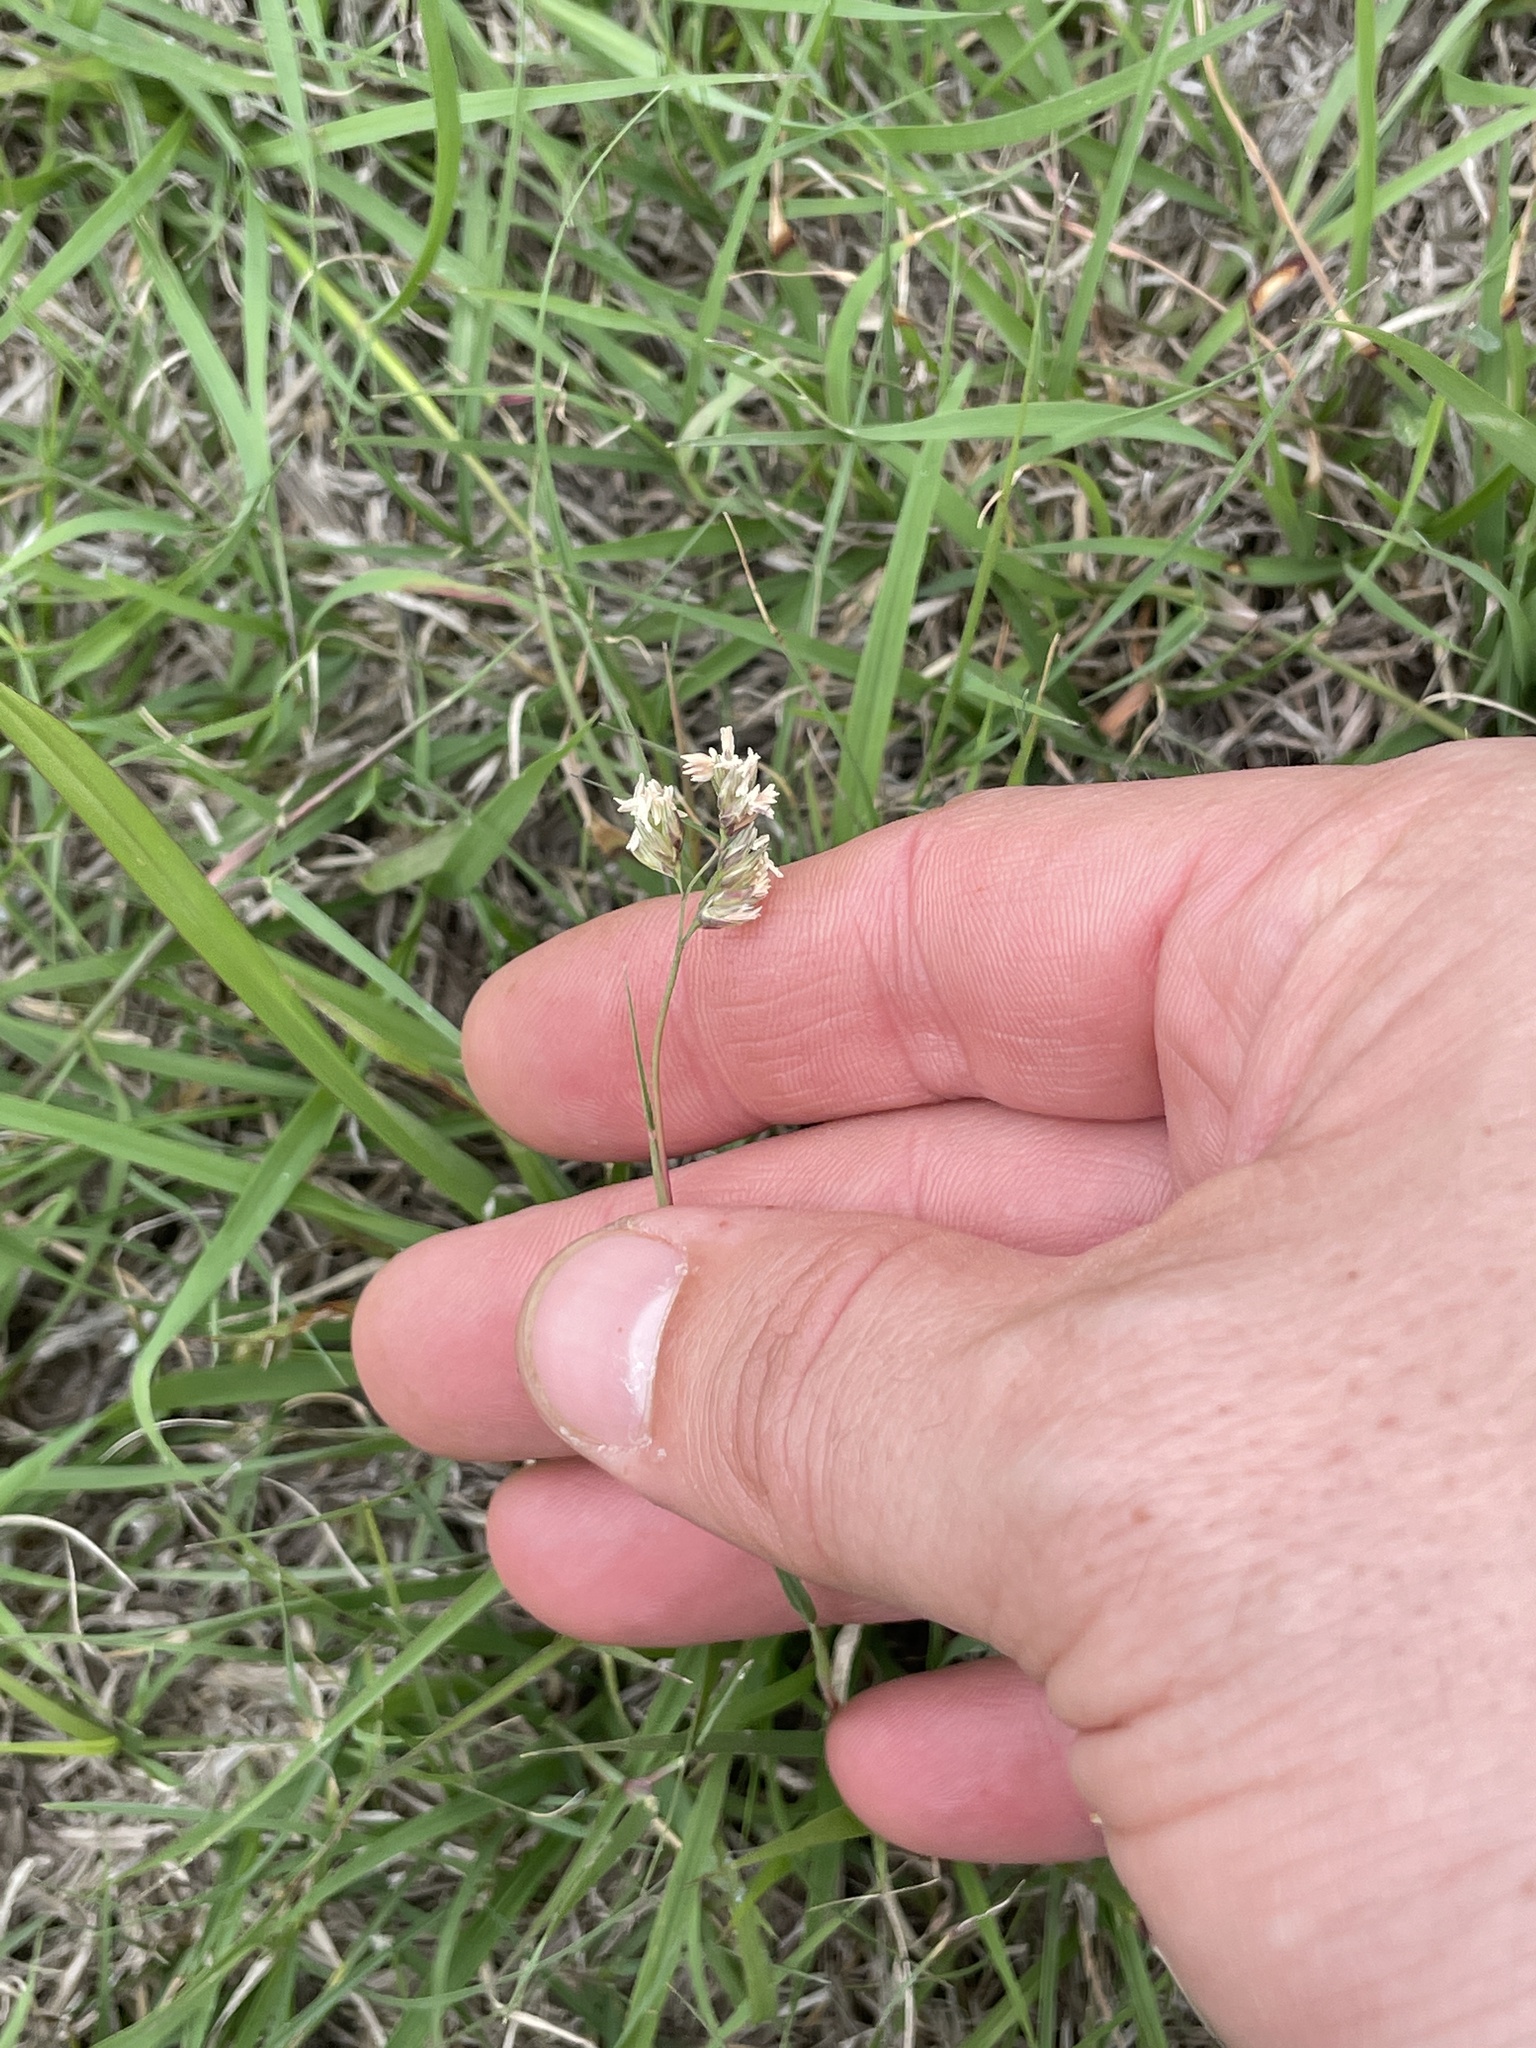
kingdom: Plantae
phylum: Tracheophyta
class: Liliopsida
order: Poales
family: Poaceae
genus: Bouteloua
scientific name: Bouteloua dactyloides
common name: Buffalo grass
